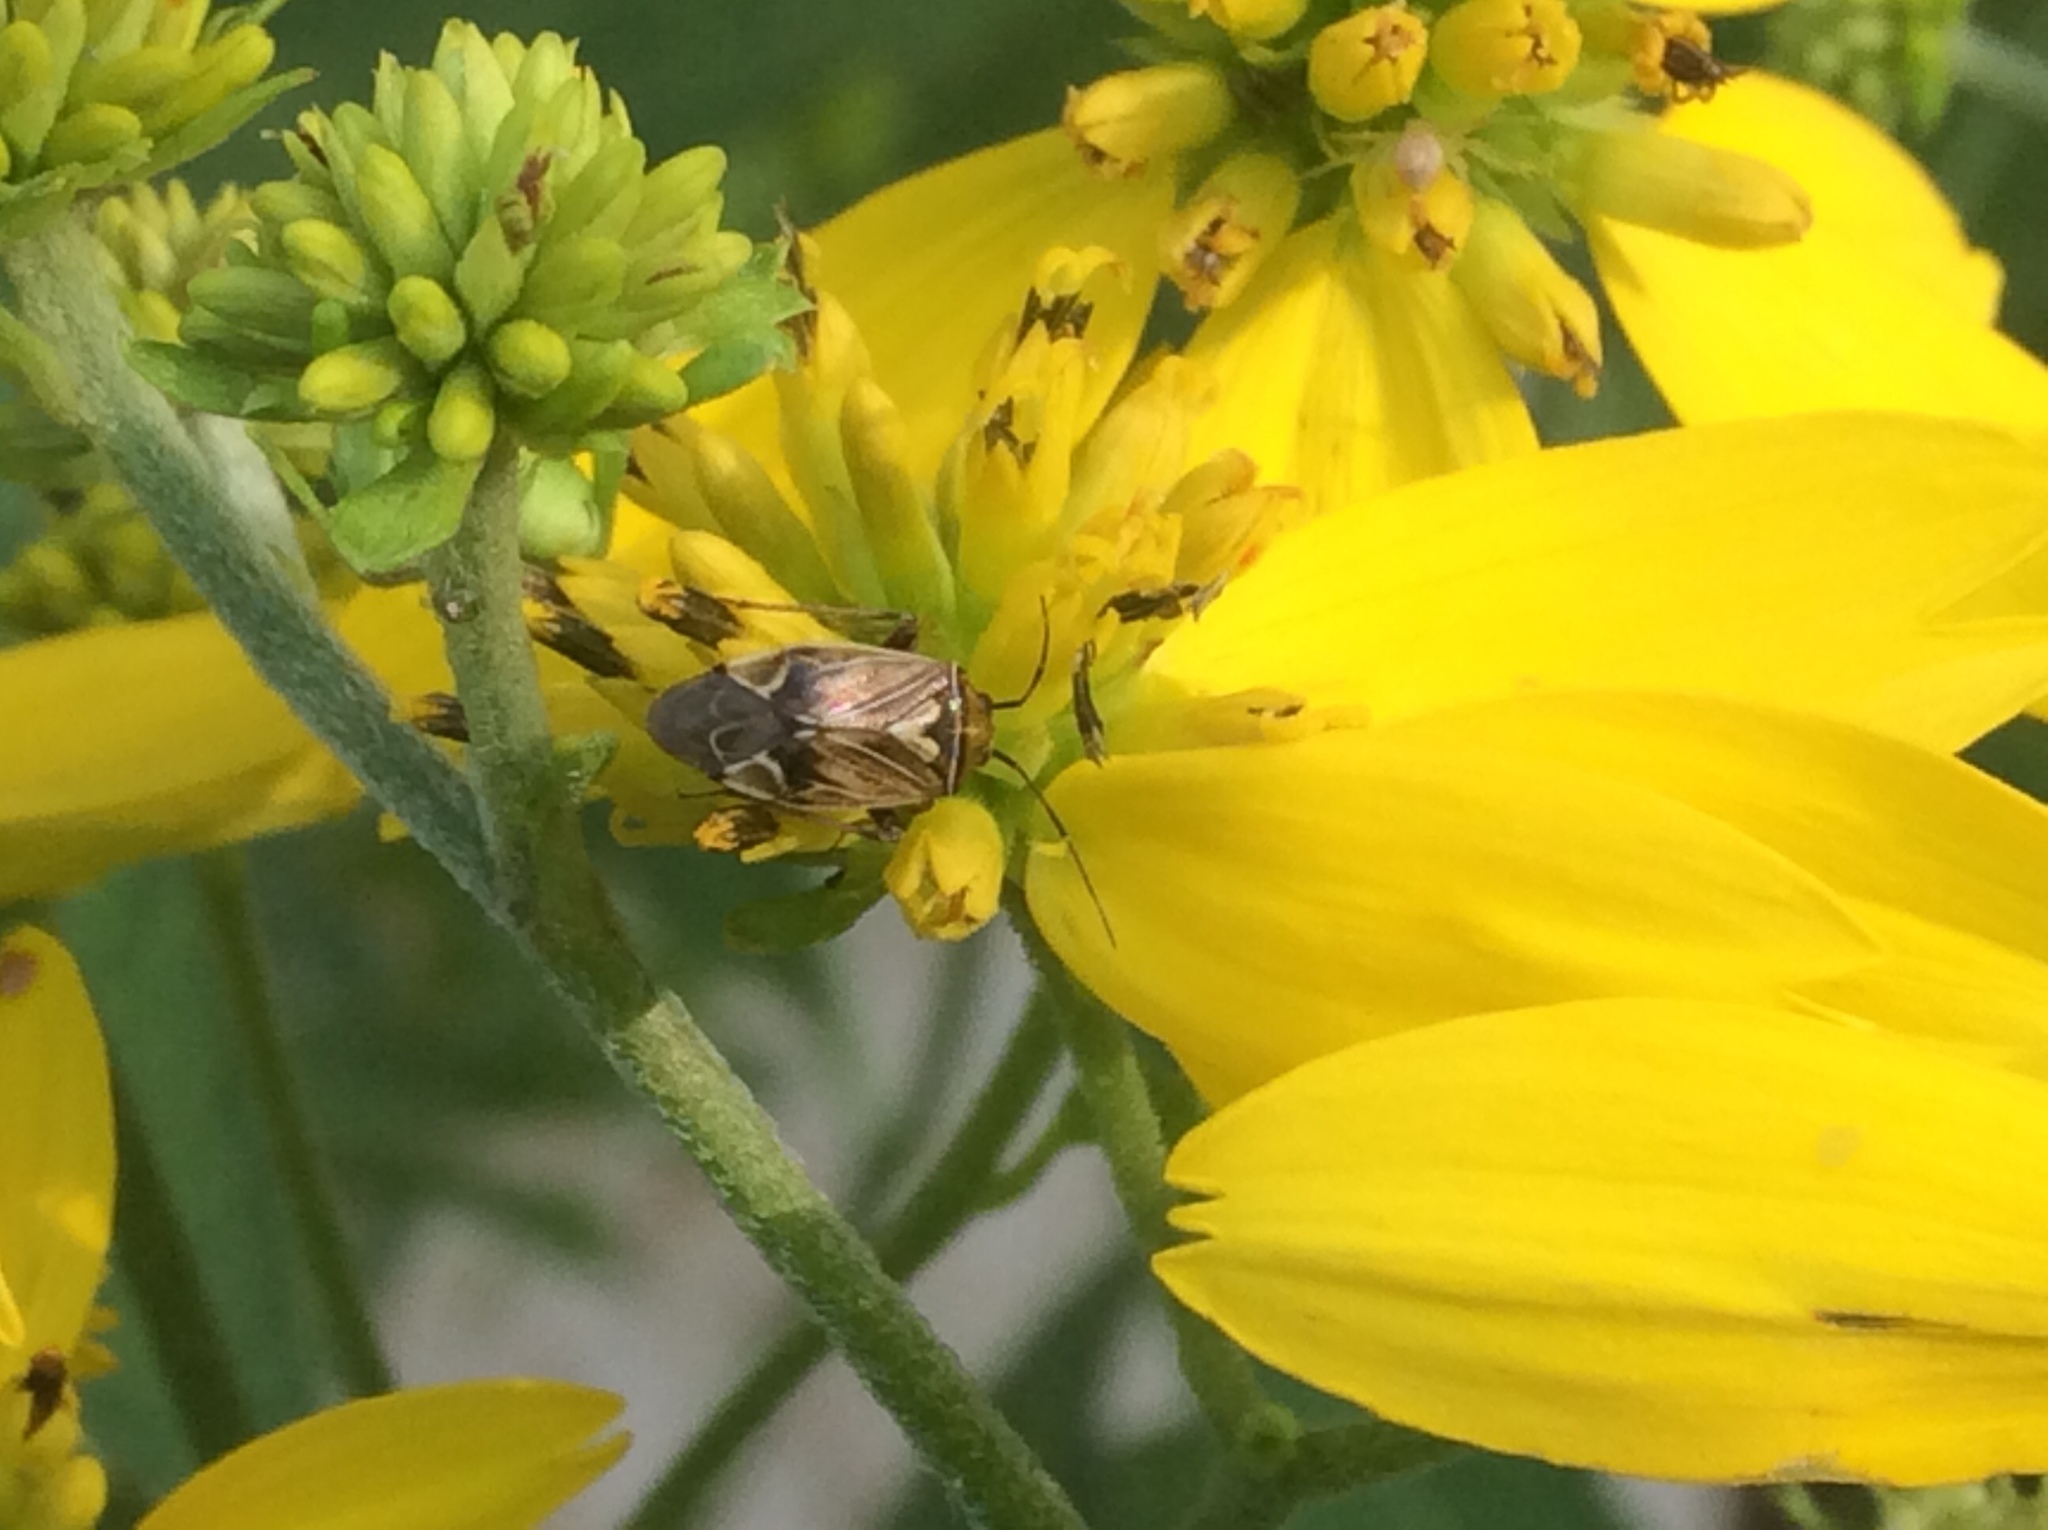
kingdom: Animalia
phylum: Arthropoda
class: Insecta
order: Hemiptera
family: Miridae
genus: Lygus
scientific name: Lygus lineolaris
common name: North american tarnished plant bug
